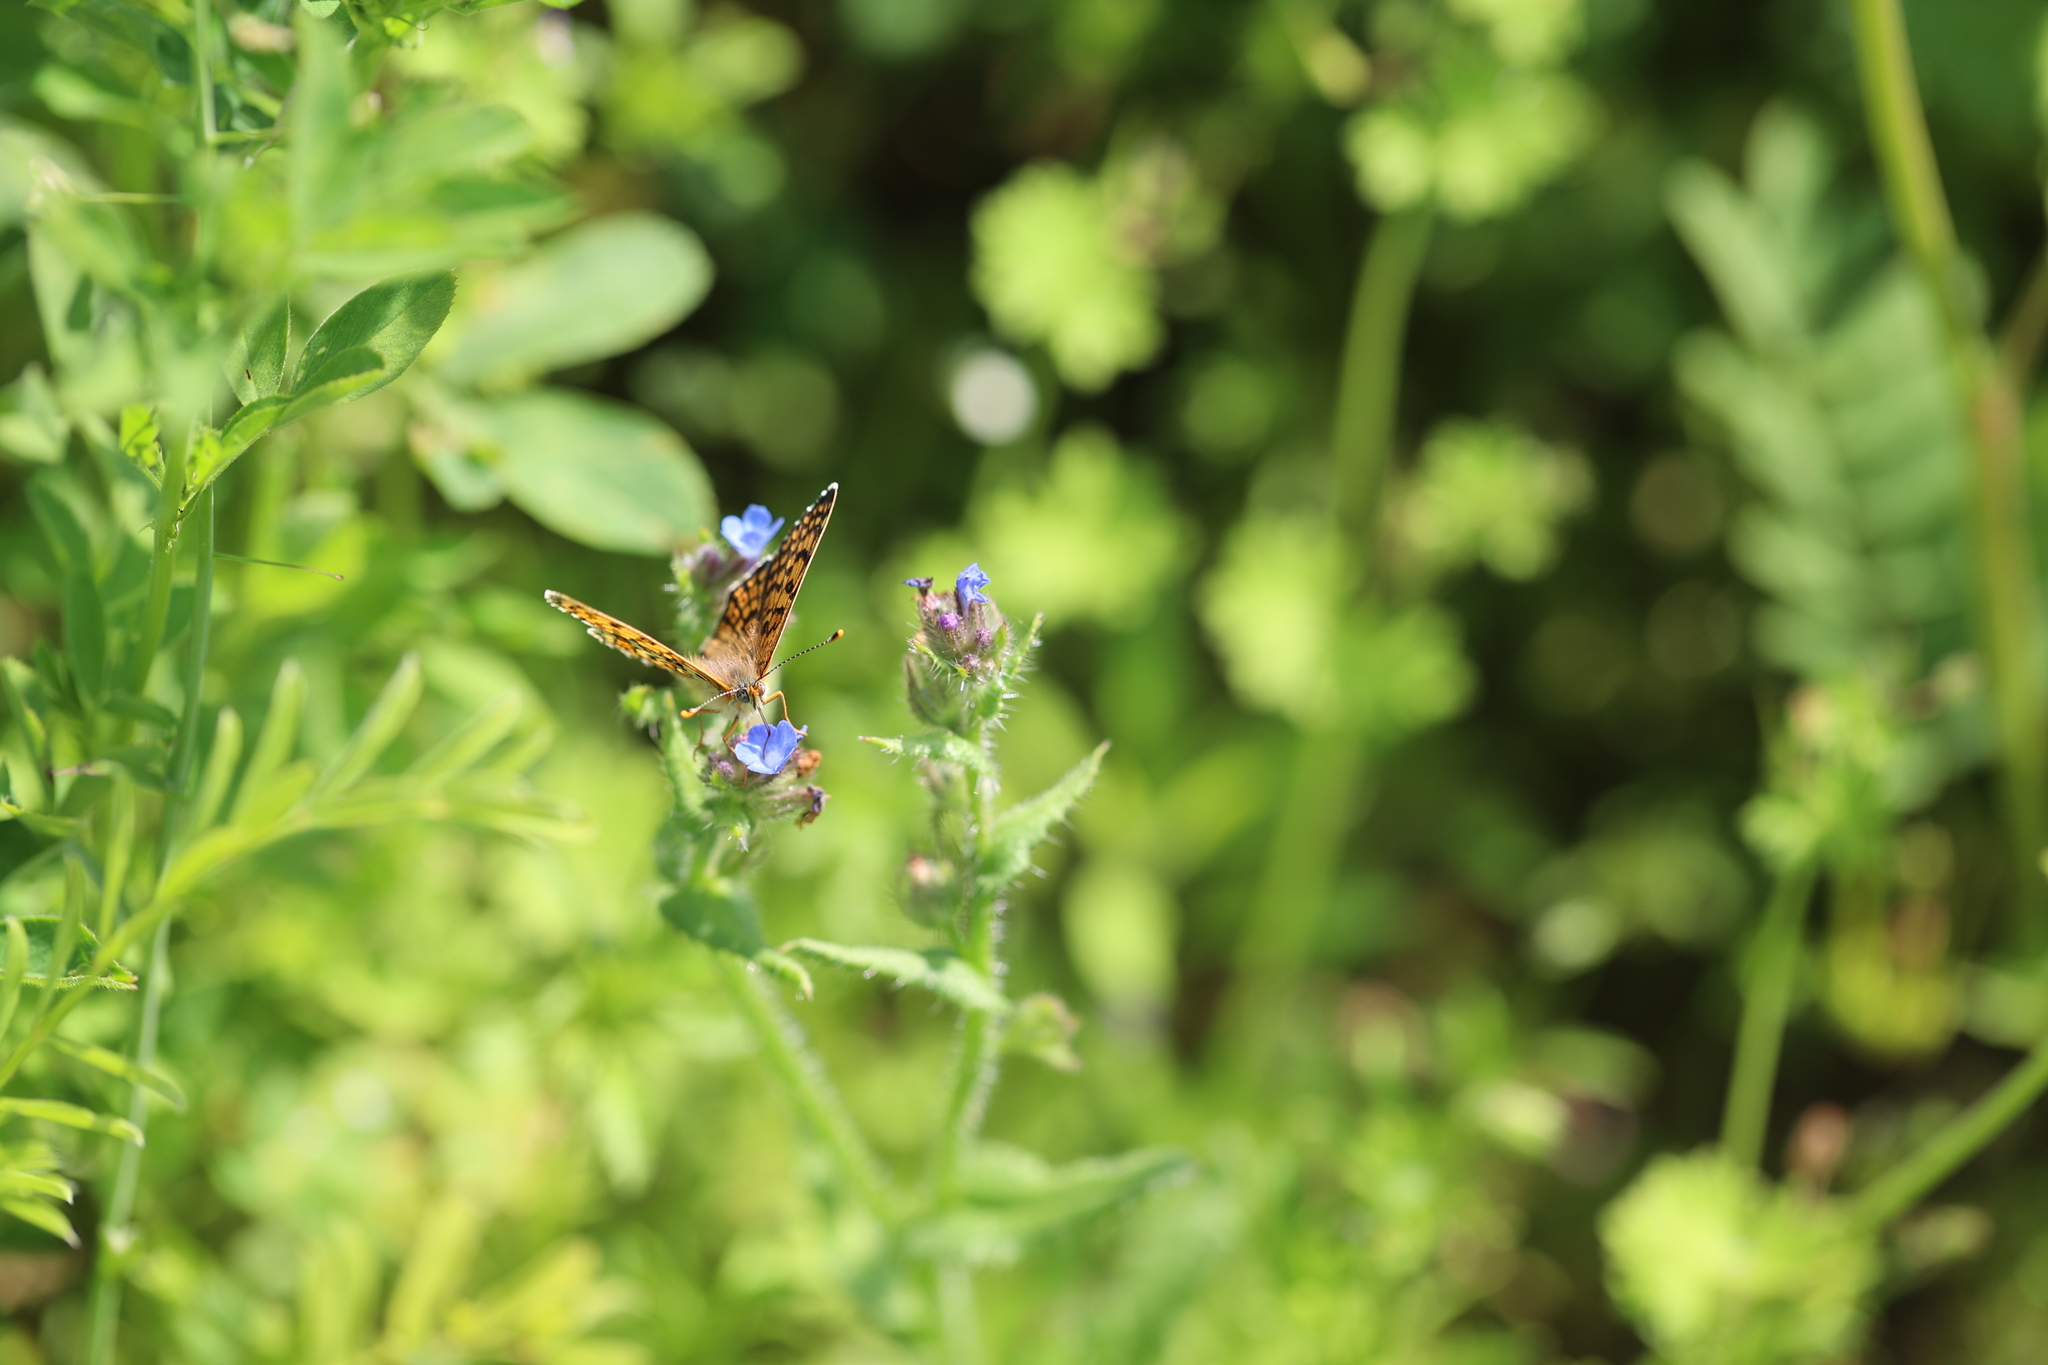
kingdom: Animalia
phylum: Arthropoda
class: Insecta
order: Lepidoptera
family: Nymphalidae
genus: Melitaea
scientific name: Melitaea cinxia
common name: Glanville fritillary
